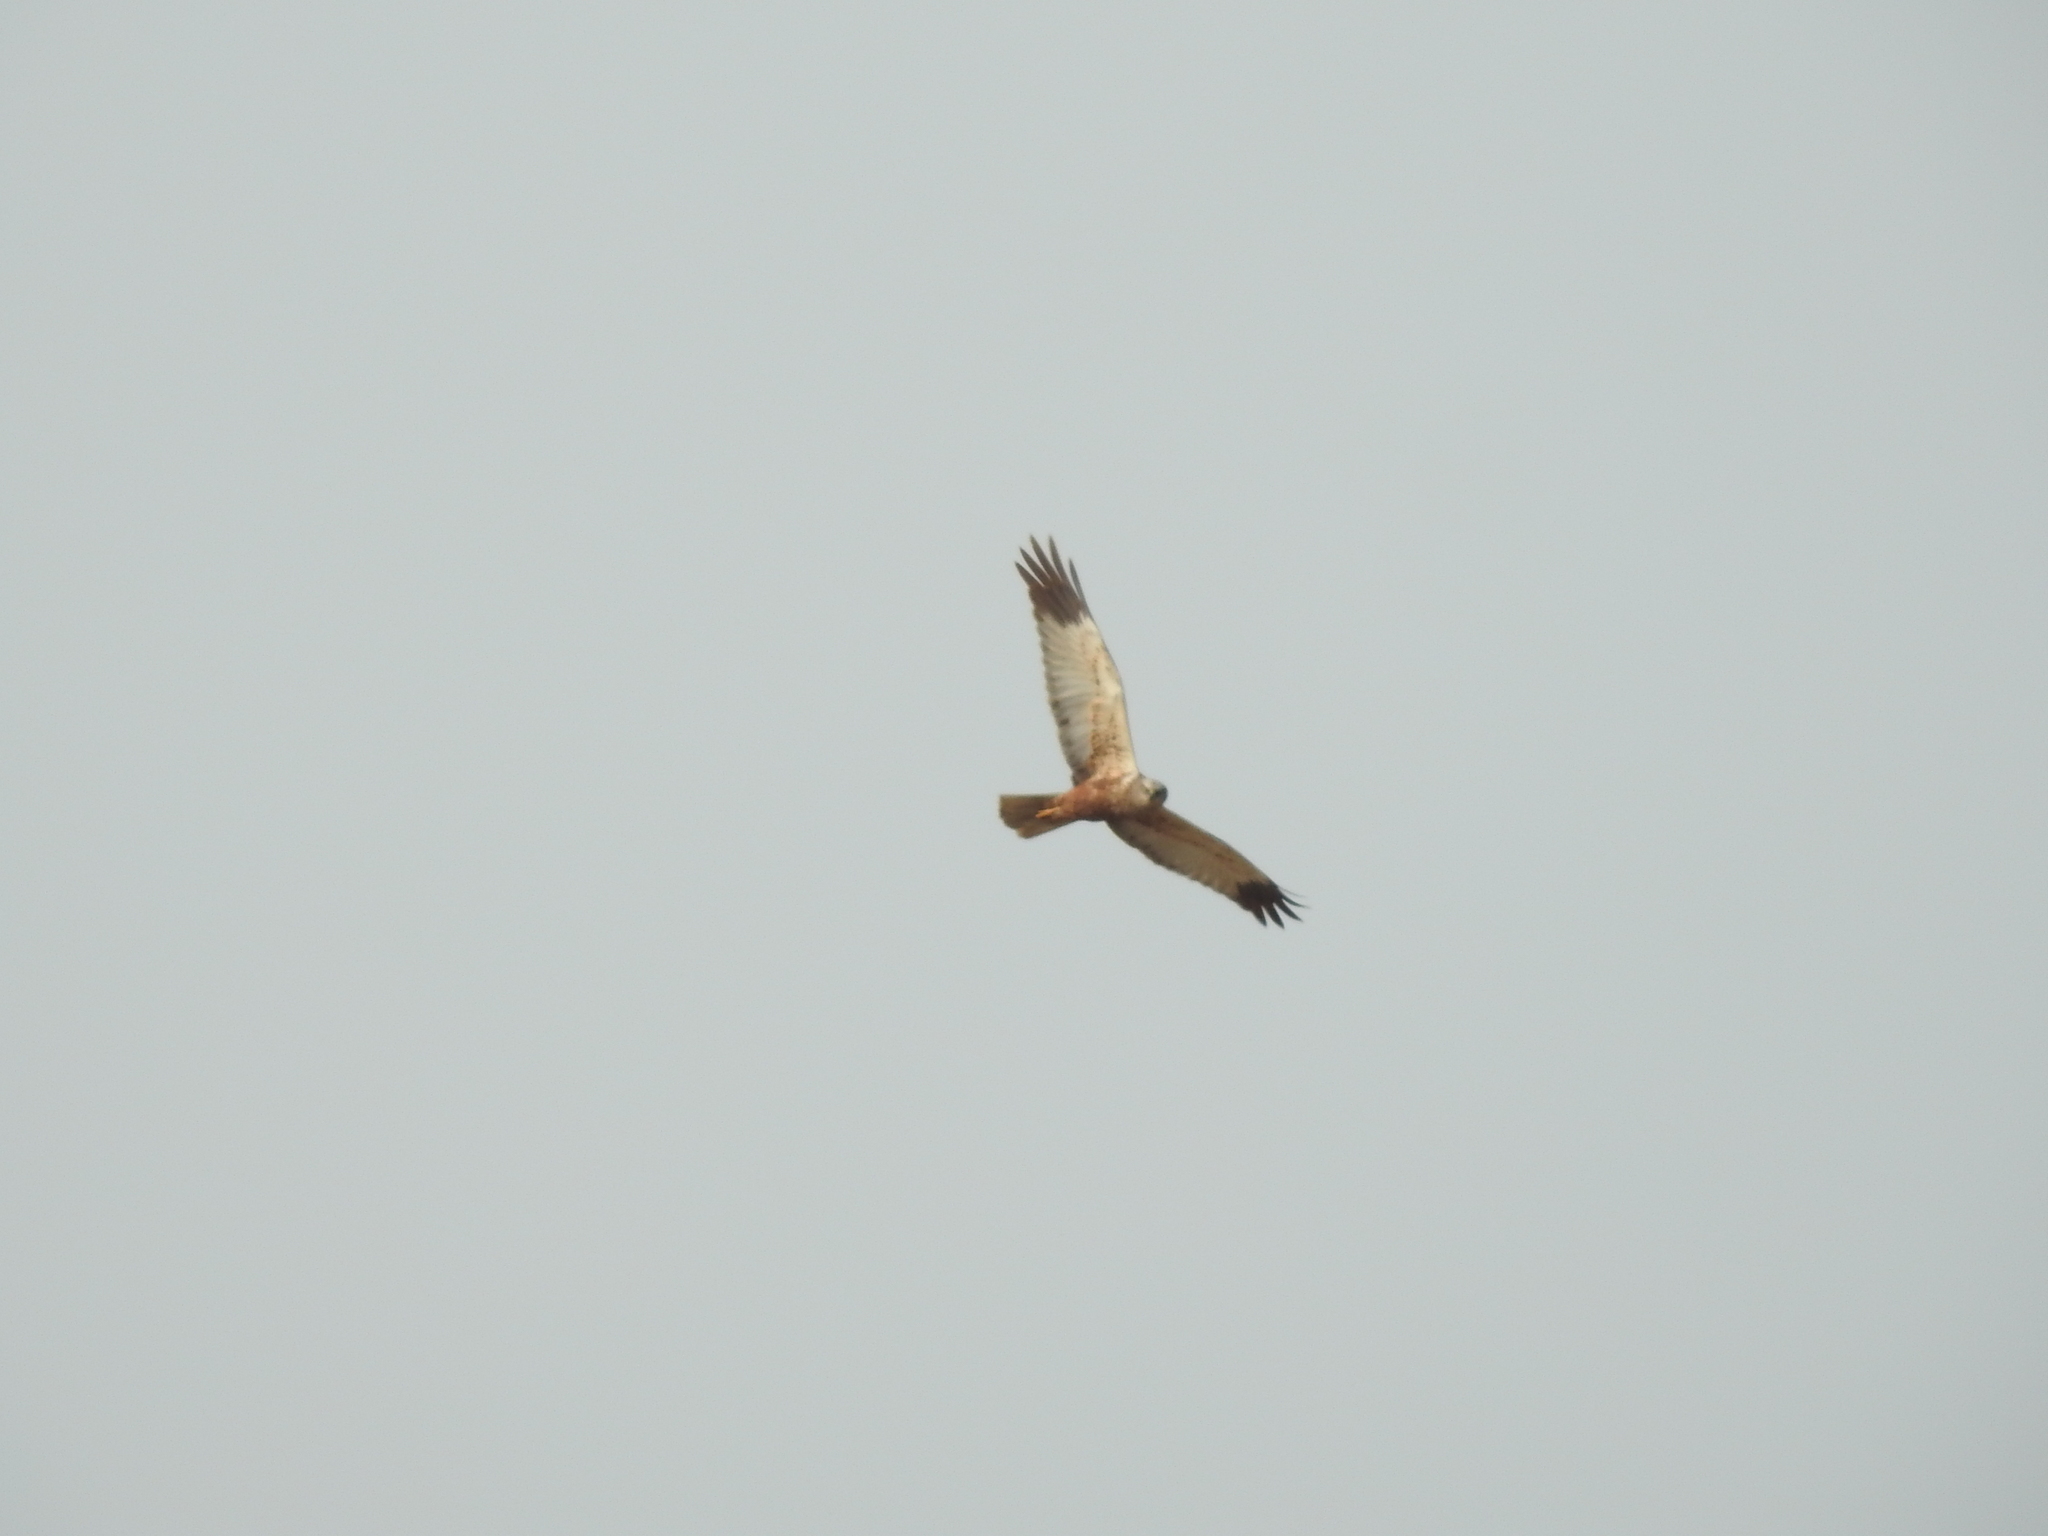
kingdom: Animalia
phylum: Chordata
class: Aves
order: Accipitriformes
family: Accipitridae
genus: Circus
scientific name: Circus aeruginosus
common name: Western marsh harrier
